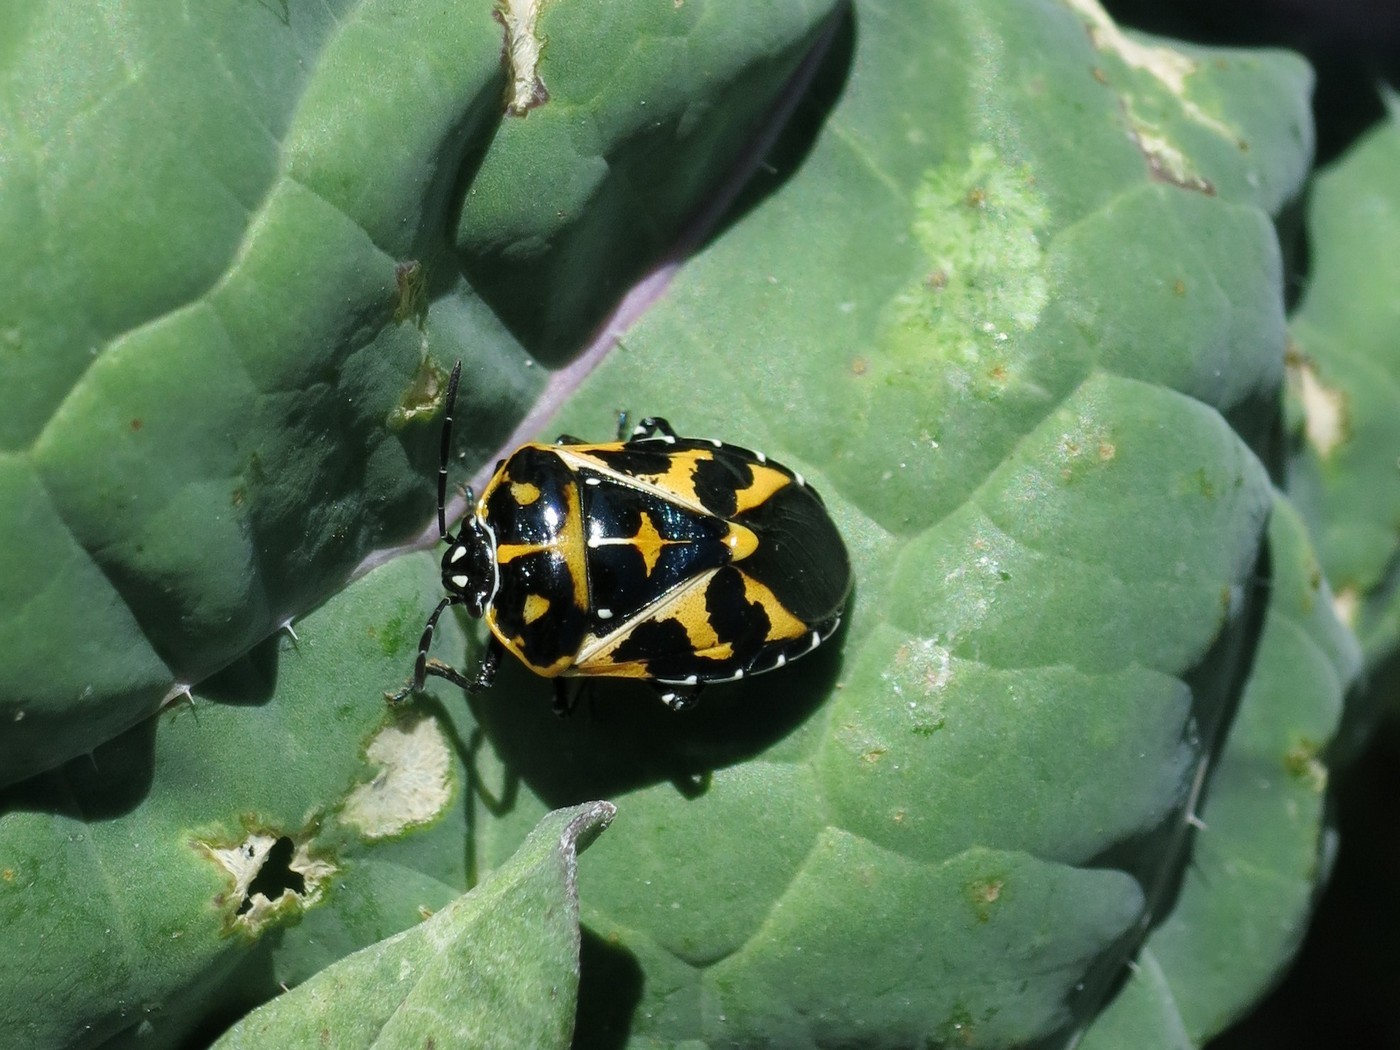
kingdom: Animalia
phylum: Arthropoda
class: Insecta
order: Hemiptera
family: Pentatomidae
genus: Murgantia
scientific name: Murgantia histrionica
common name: Harlequin bug
